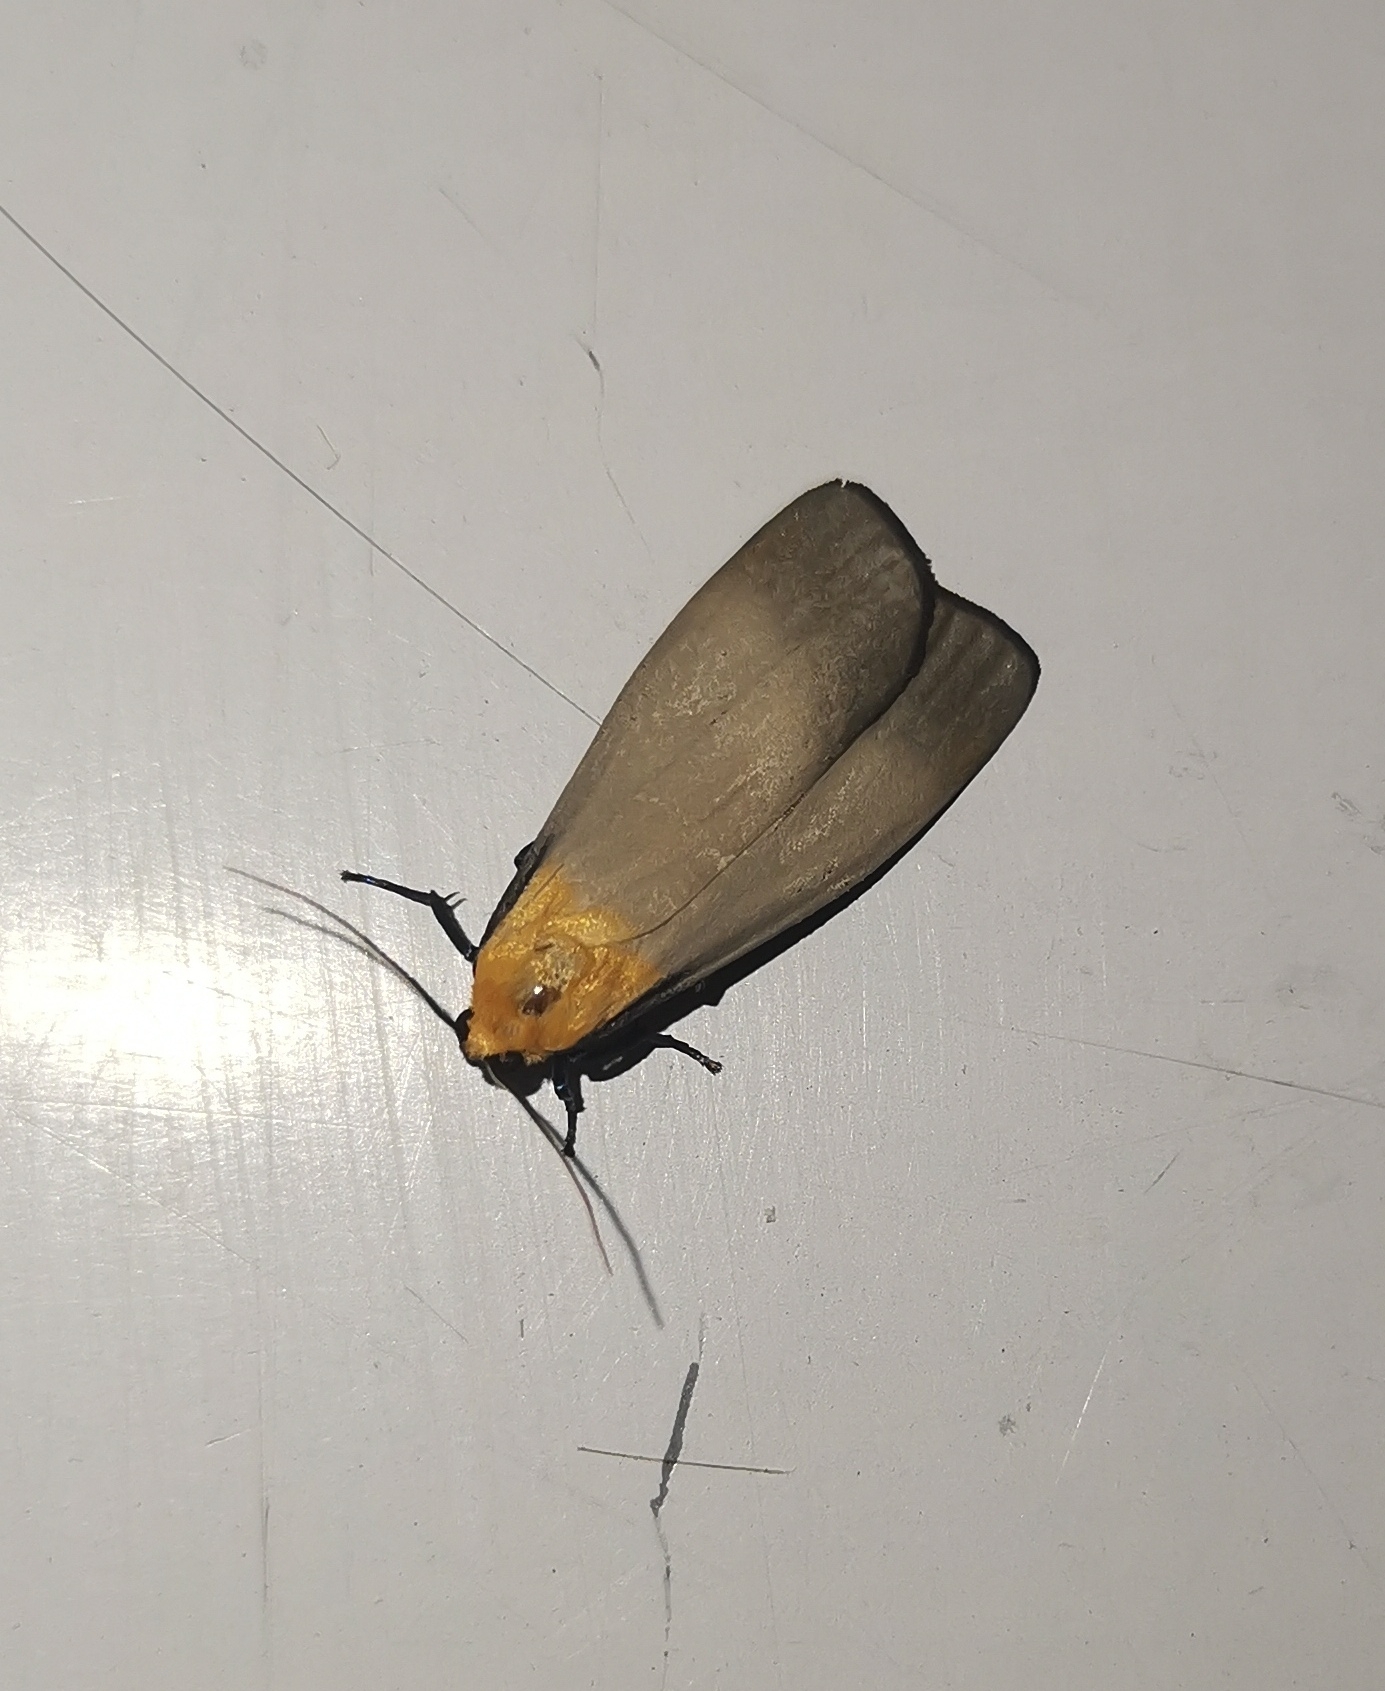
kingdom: Animalia
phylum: Arthropoda
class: Insecta
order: Lepidoptera
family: Erebidae
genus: Lithosia
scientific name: Lithosia quadra
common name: Four-spotted footman
